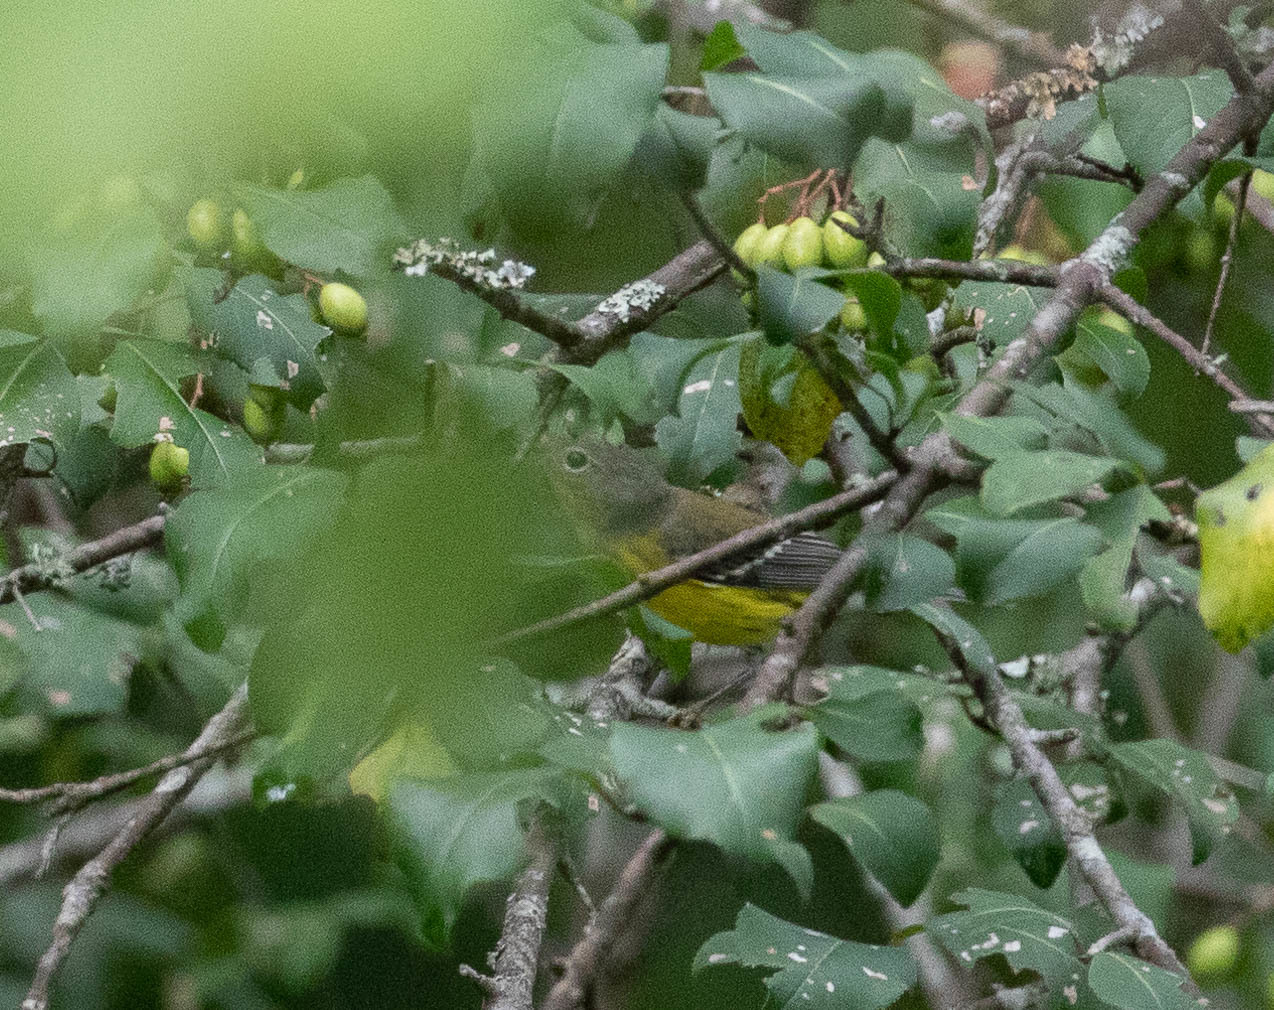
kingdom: Animalia
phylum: Chordata
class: Aves
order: Passeriformes
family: Parulidae
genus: Setophaga
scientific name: Setophaga magnolia
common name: Magnolia warbler
